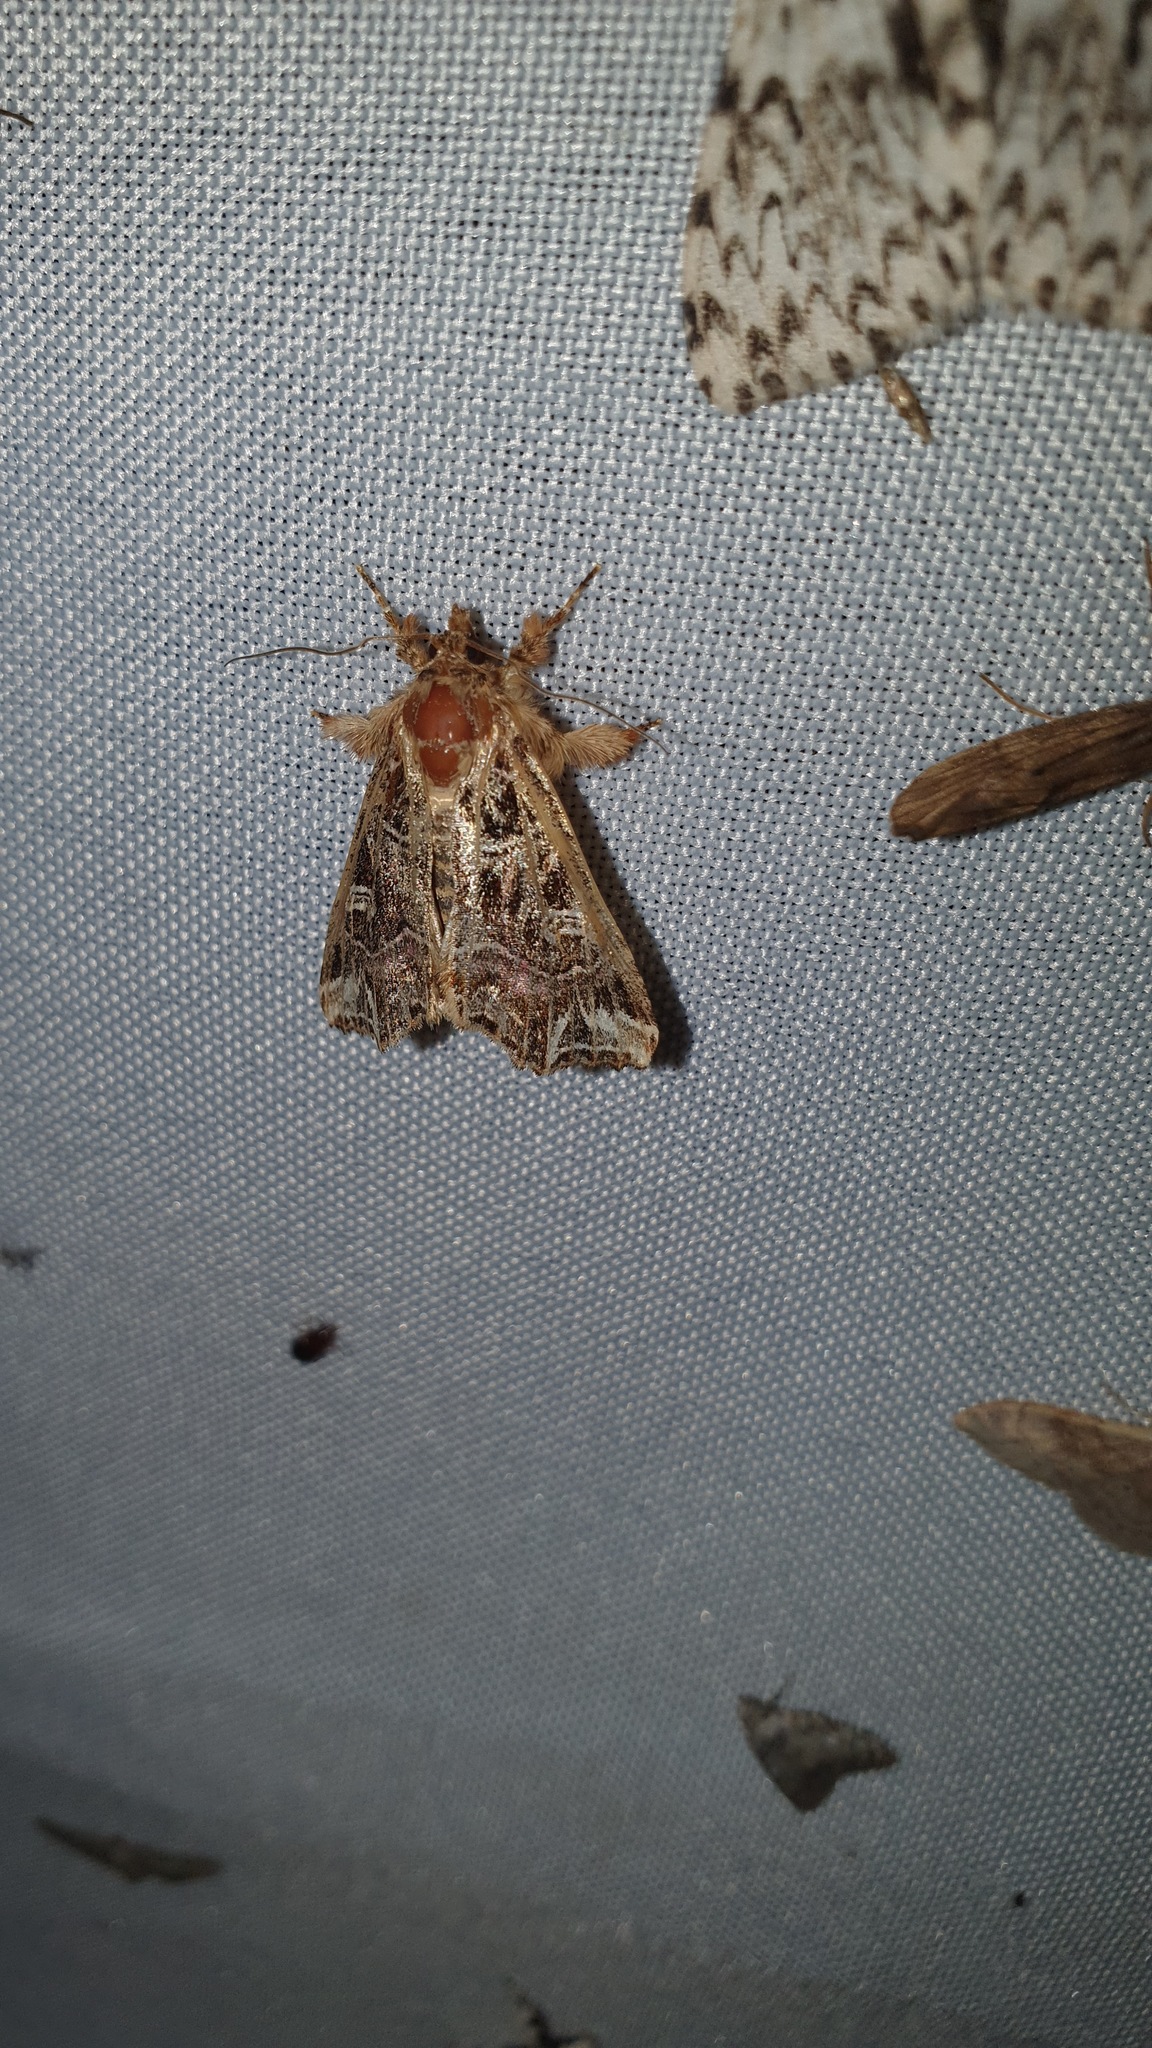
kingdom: Animalia
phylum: Arthropoda
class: Insecta
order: Lepidoptera
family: Noctuidae
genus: Callopistria
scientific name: Callopistria juventina
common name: Latin
